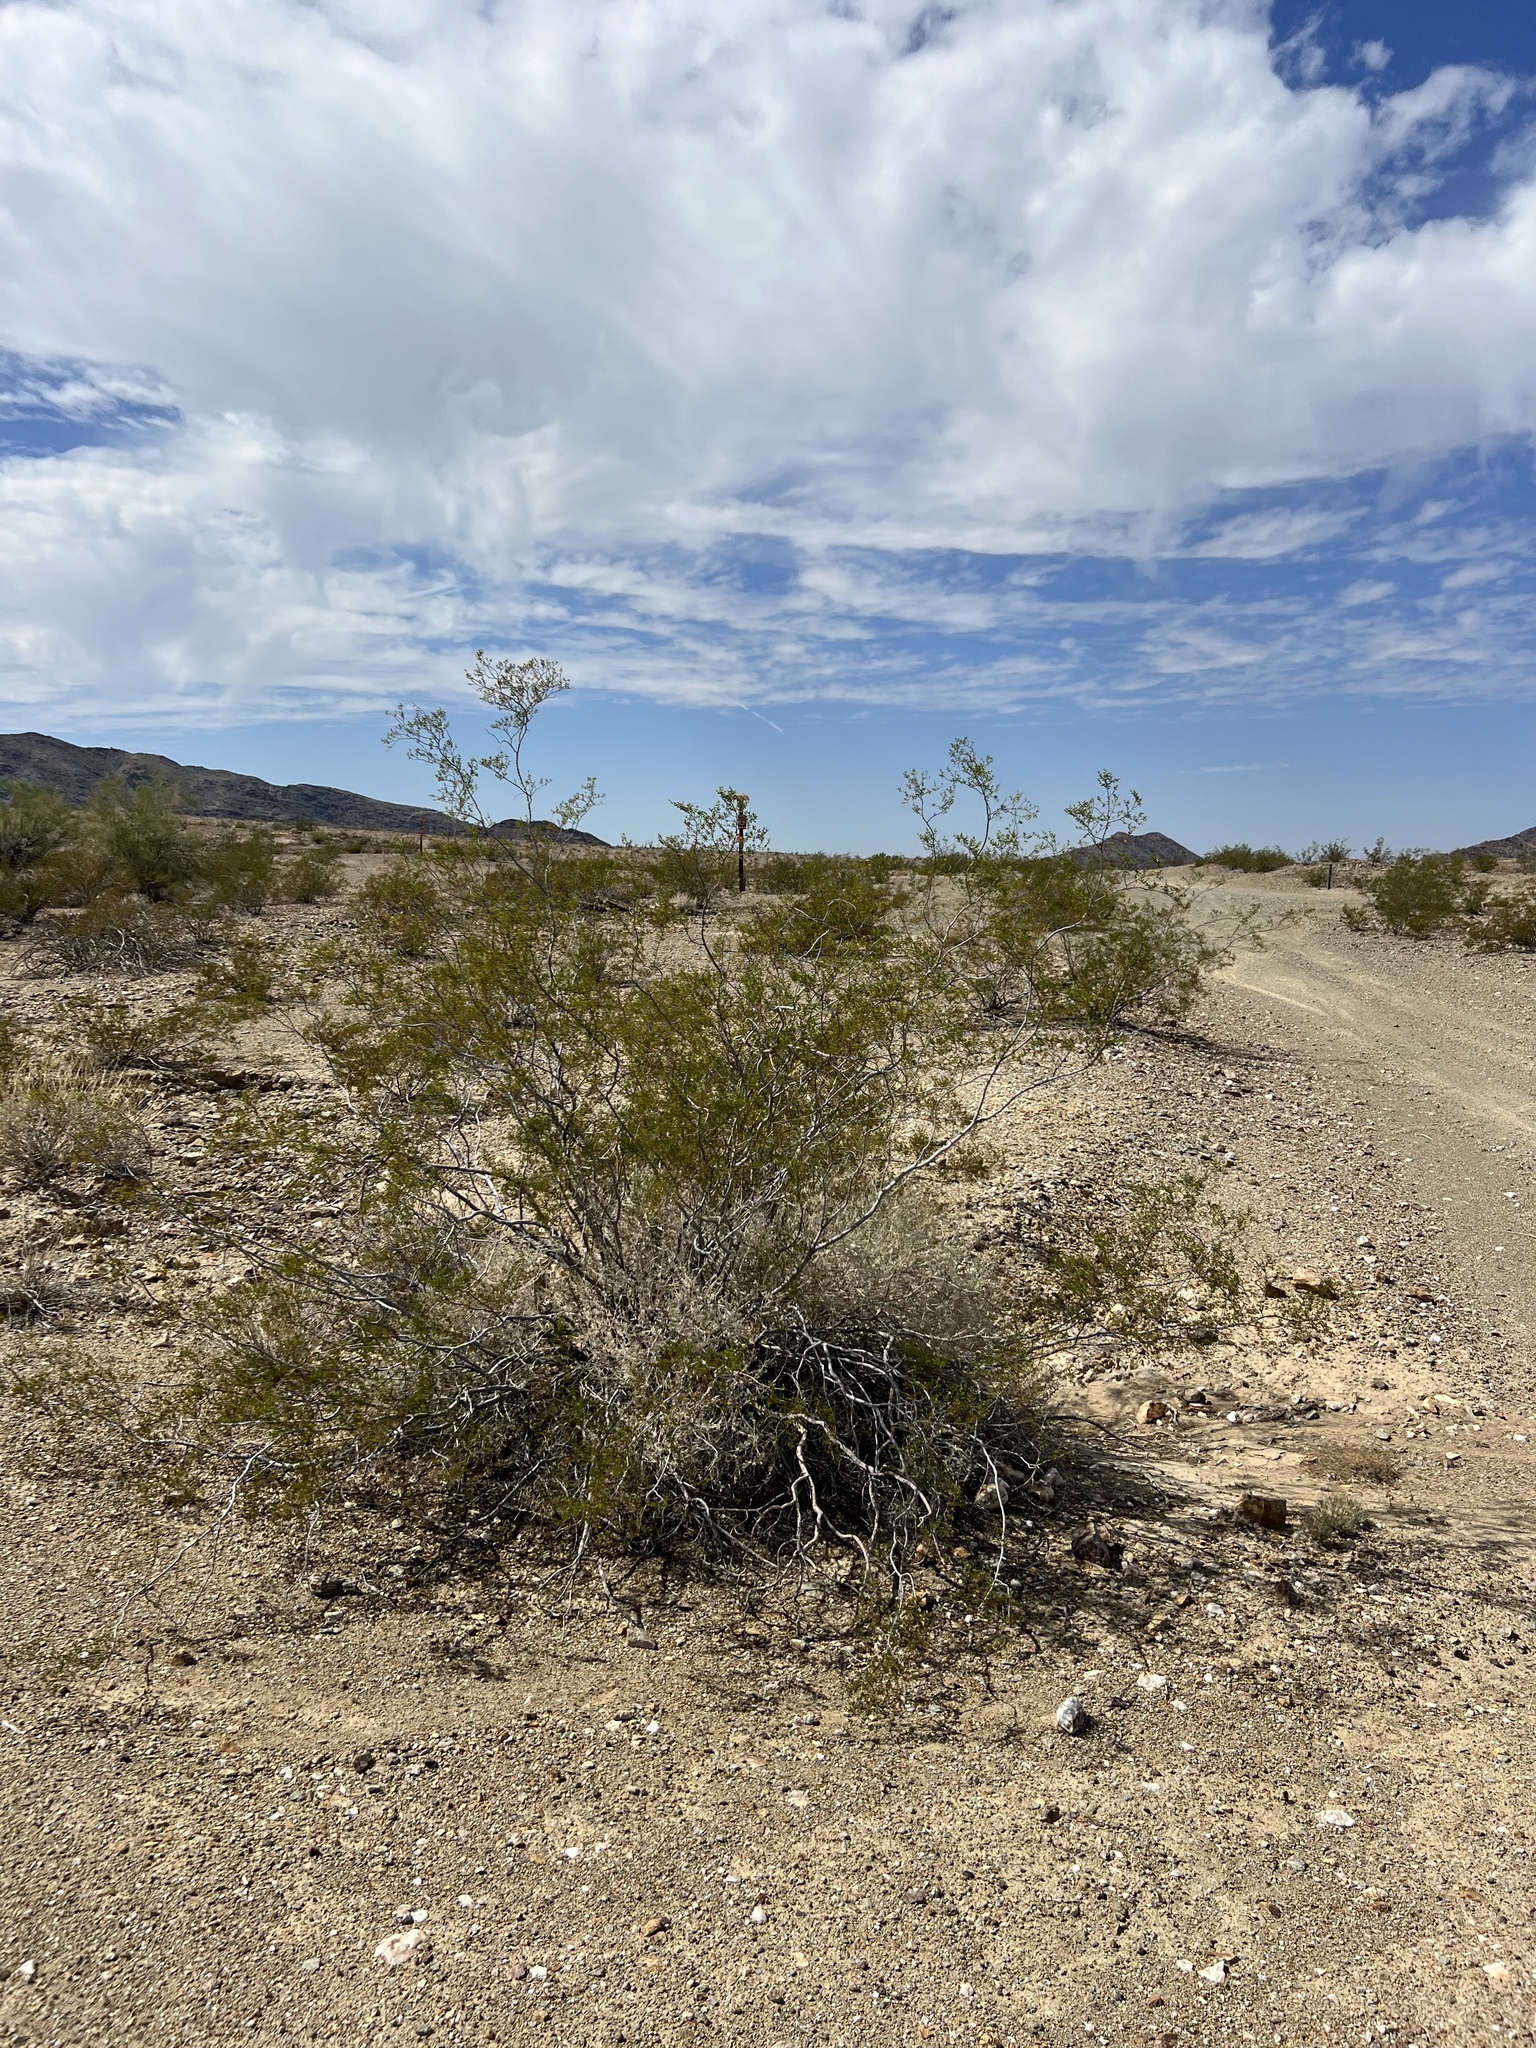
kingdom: Plantae
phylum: Tracheophyta
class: Magnoliopsida
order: Zygophyllales
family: Zygophyllaceae
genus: Larrea
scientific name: Larrea tridentata
